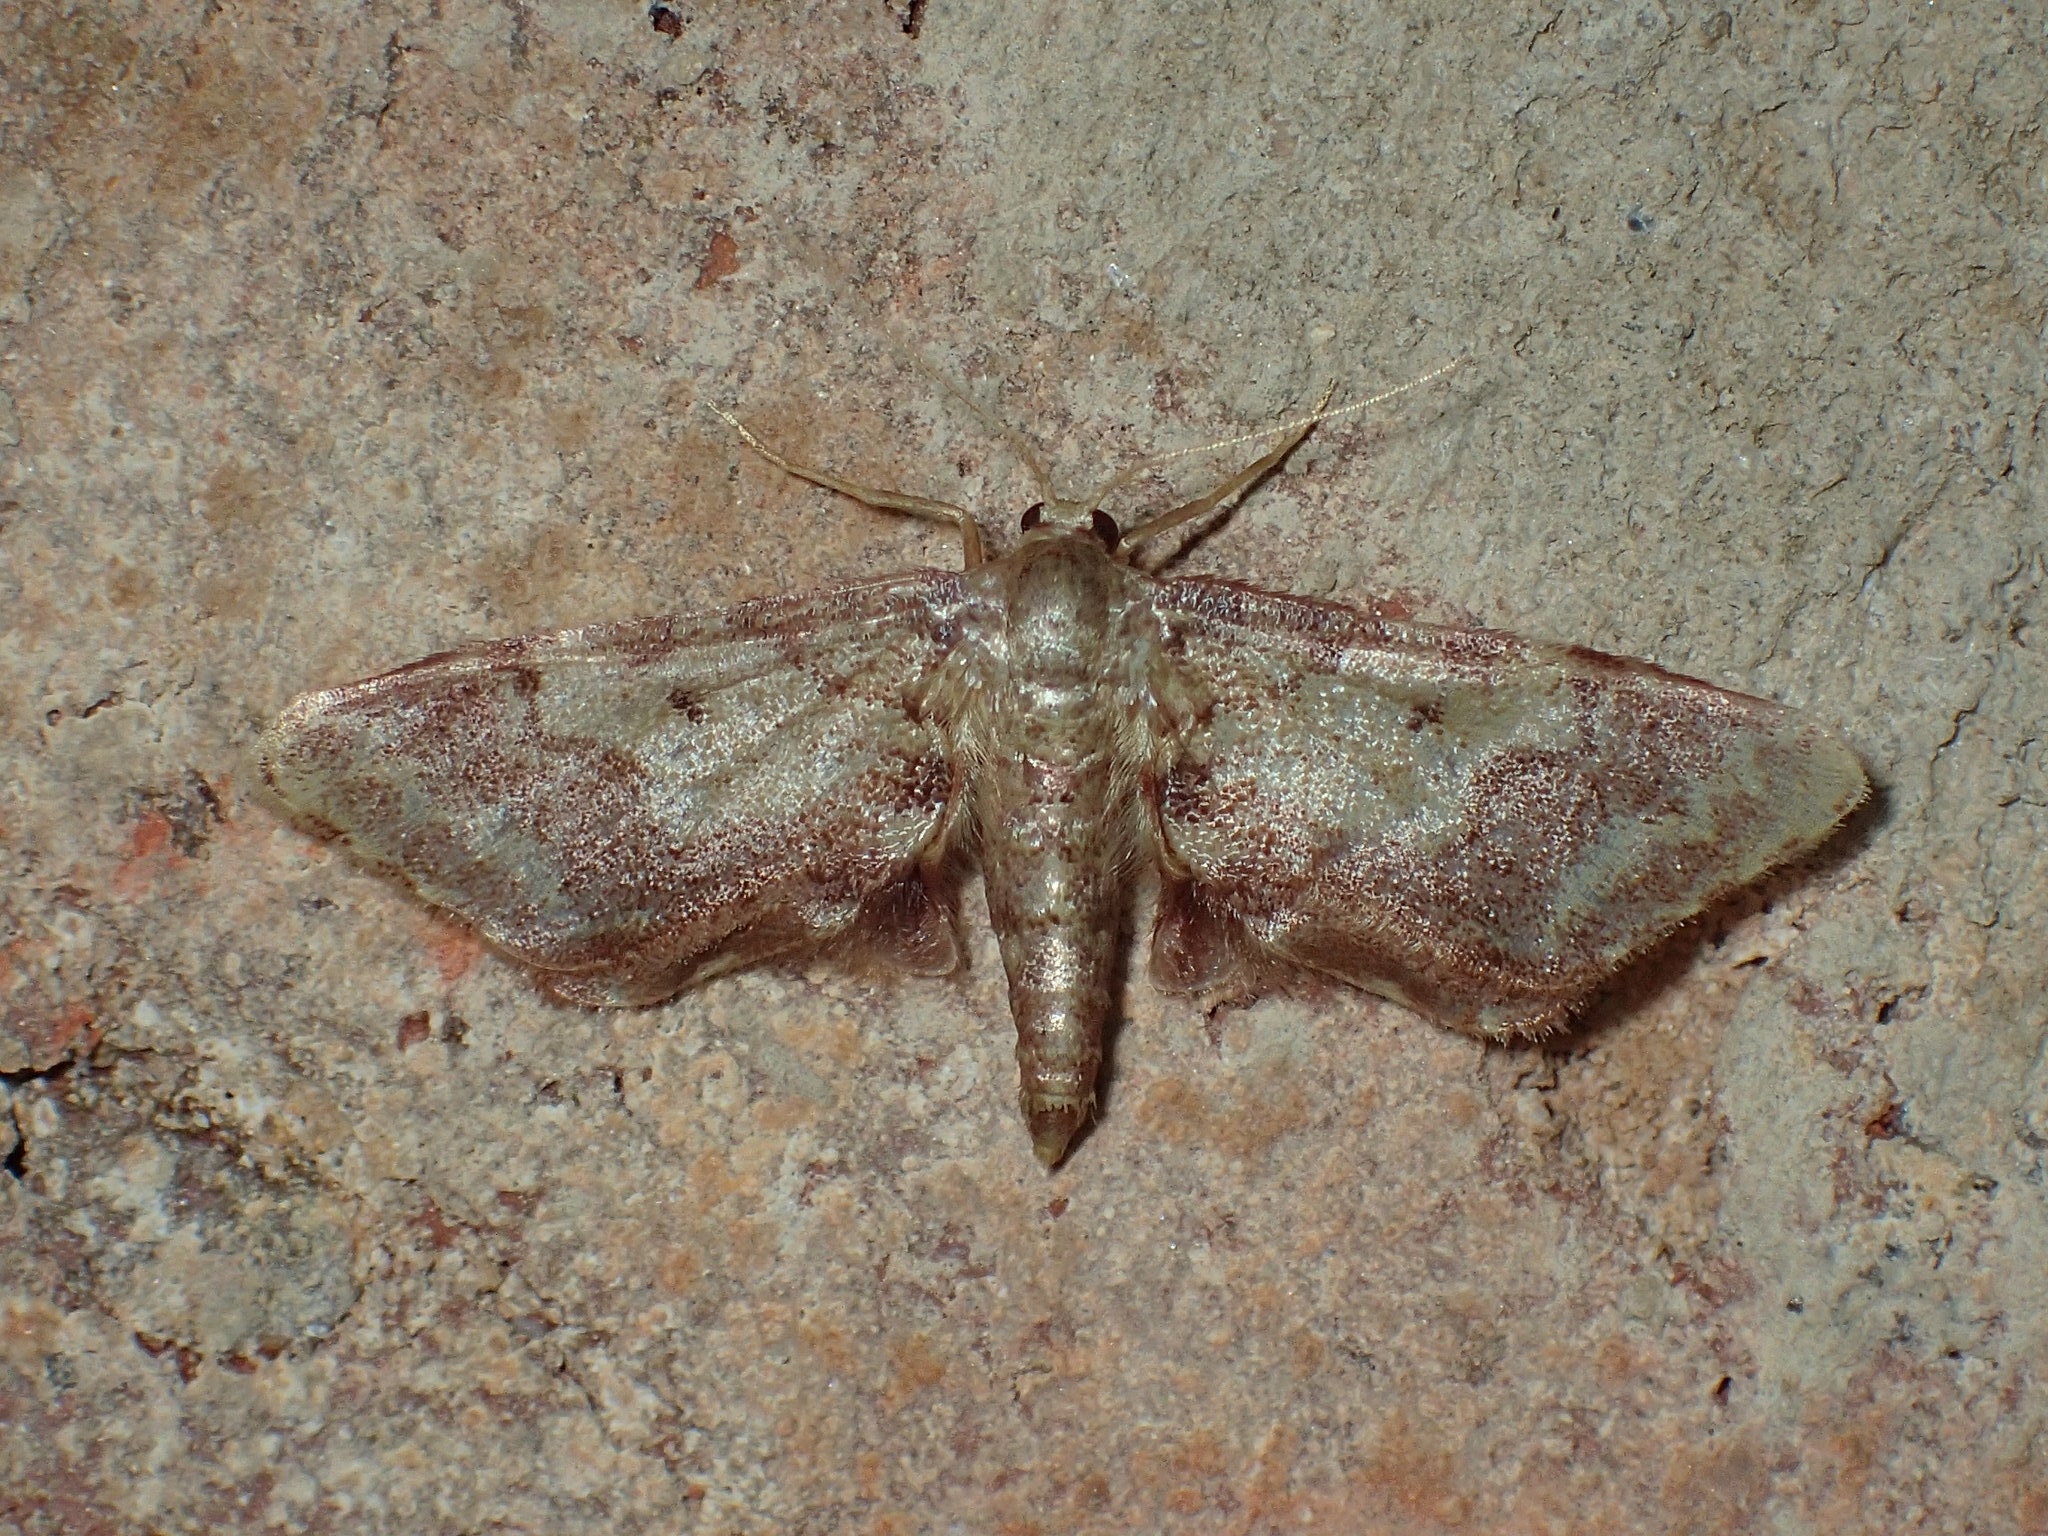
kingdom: Animalia
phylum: Arthropoda
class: Insecta
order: Lepidoptera
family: Geometridae
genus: Idaea
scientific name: Idaea furciferata
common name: Notch-winged wave
